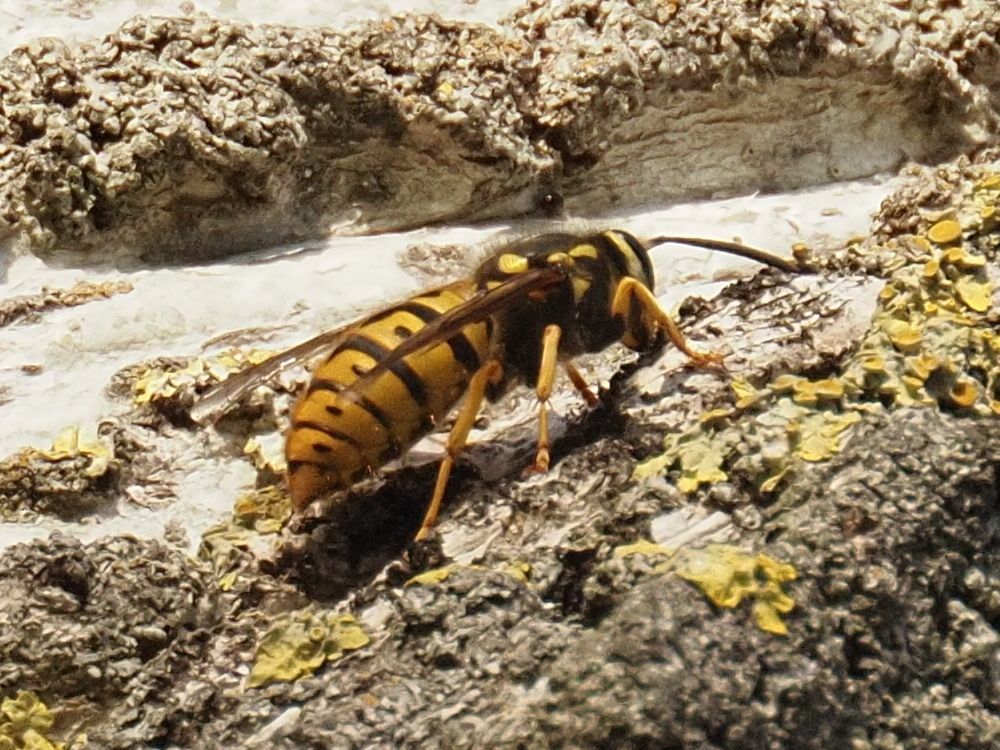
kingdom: Animalia
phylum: Arthropoda
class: Insecta
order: Hymenoptera
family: Vespidae
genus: Vespula
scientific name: Vespula germanica
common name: German wasp
